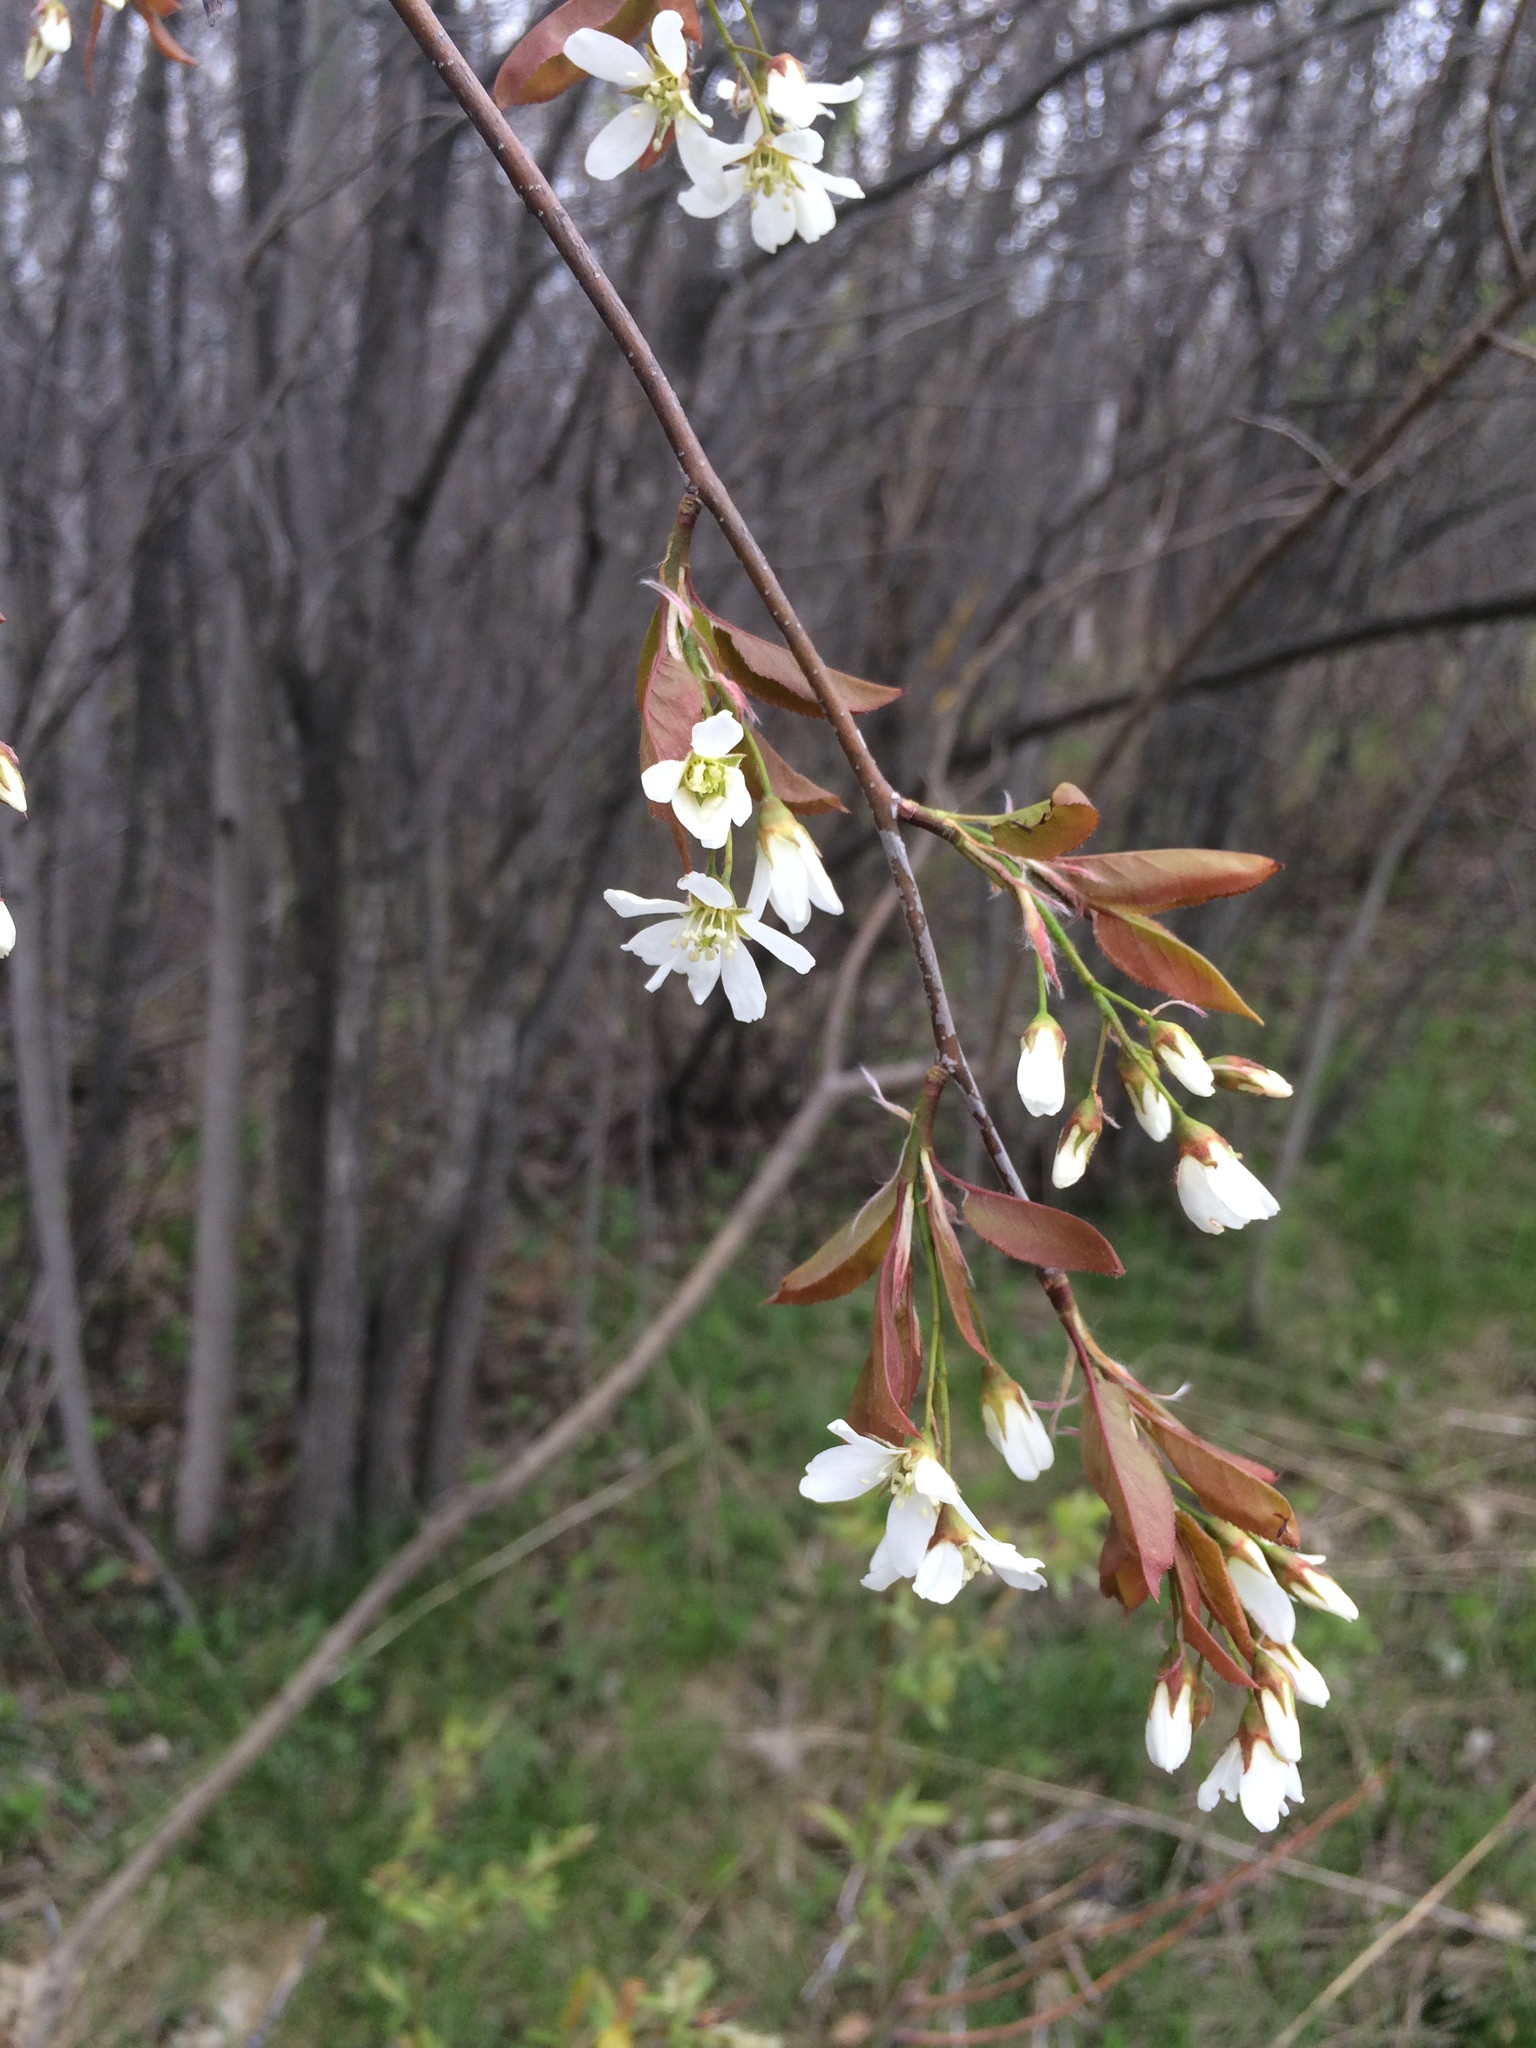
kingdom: Plantae
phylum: Tracheophyta
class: Magnoliopsida
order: Rosales
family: Rosaceae
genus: Amelanchier
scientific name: Amelanchier laevis
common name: Allegheny serviceberry
